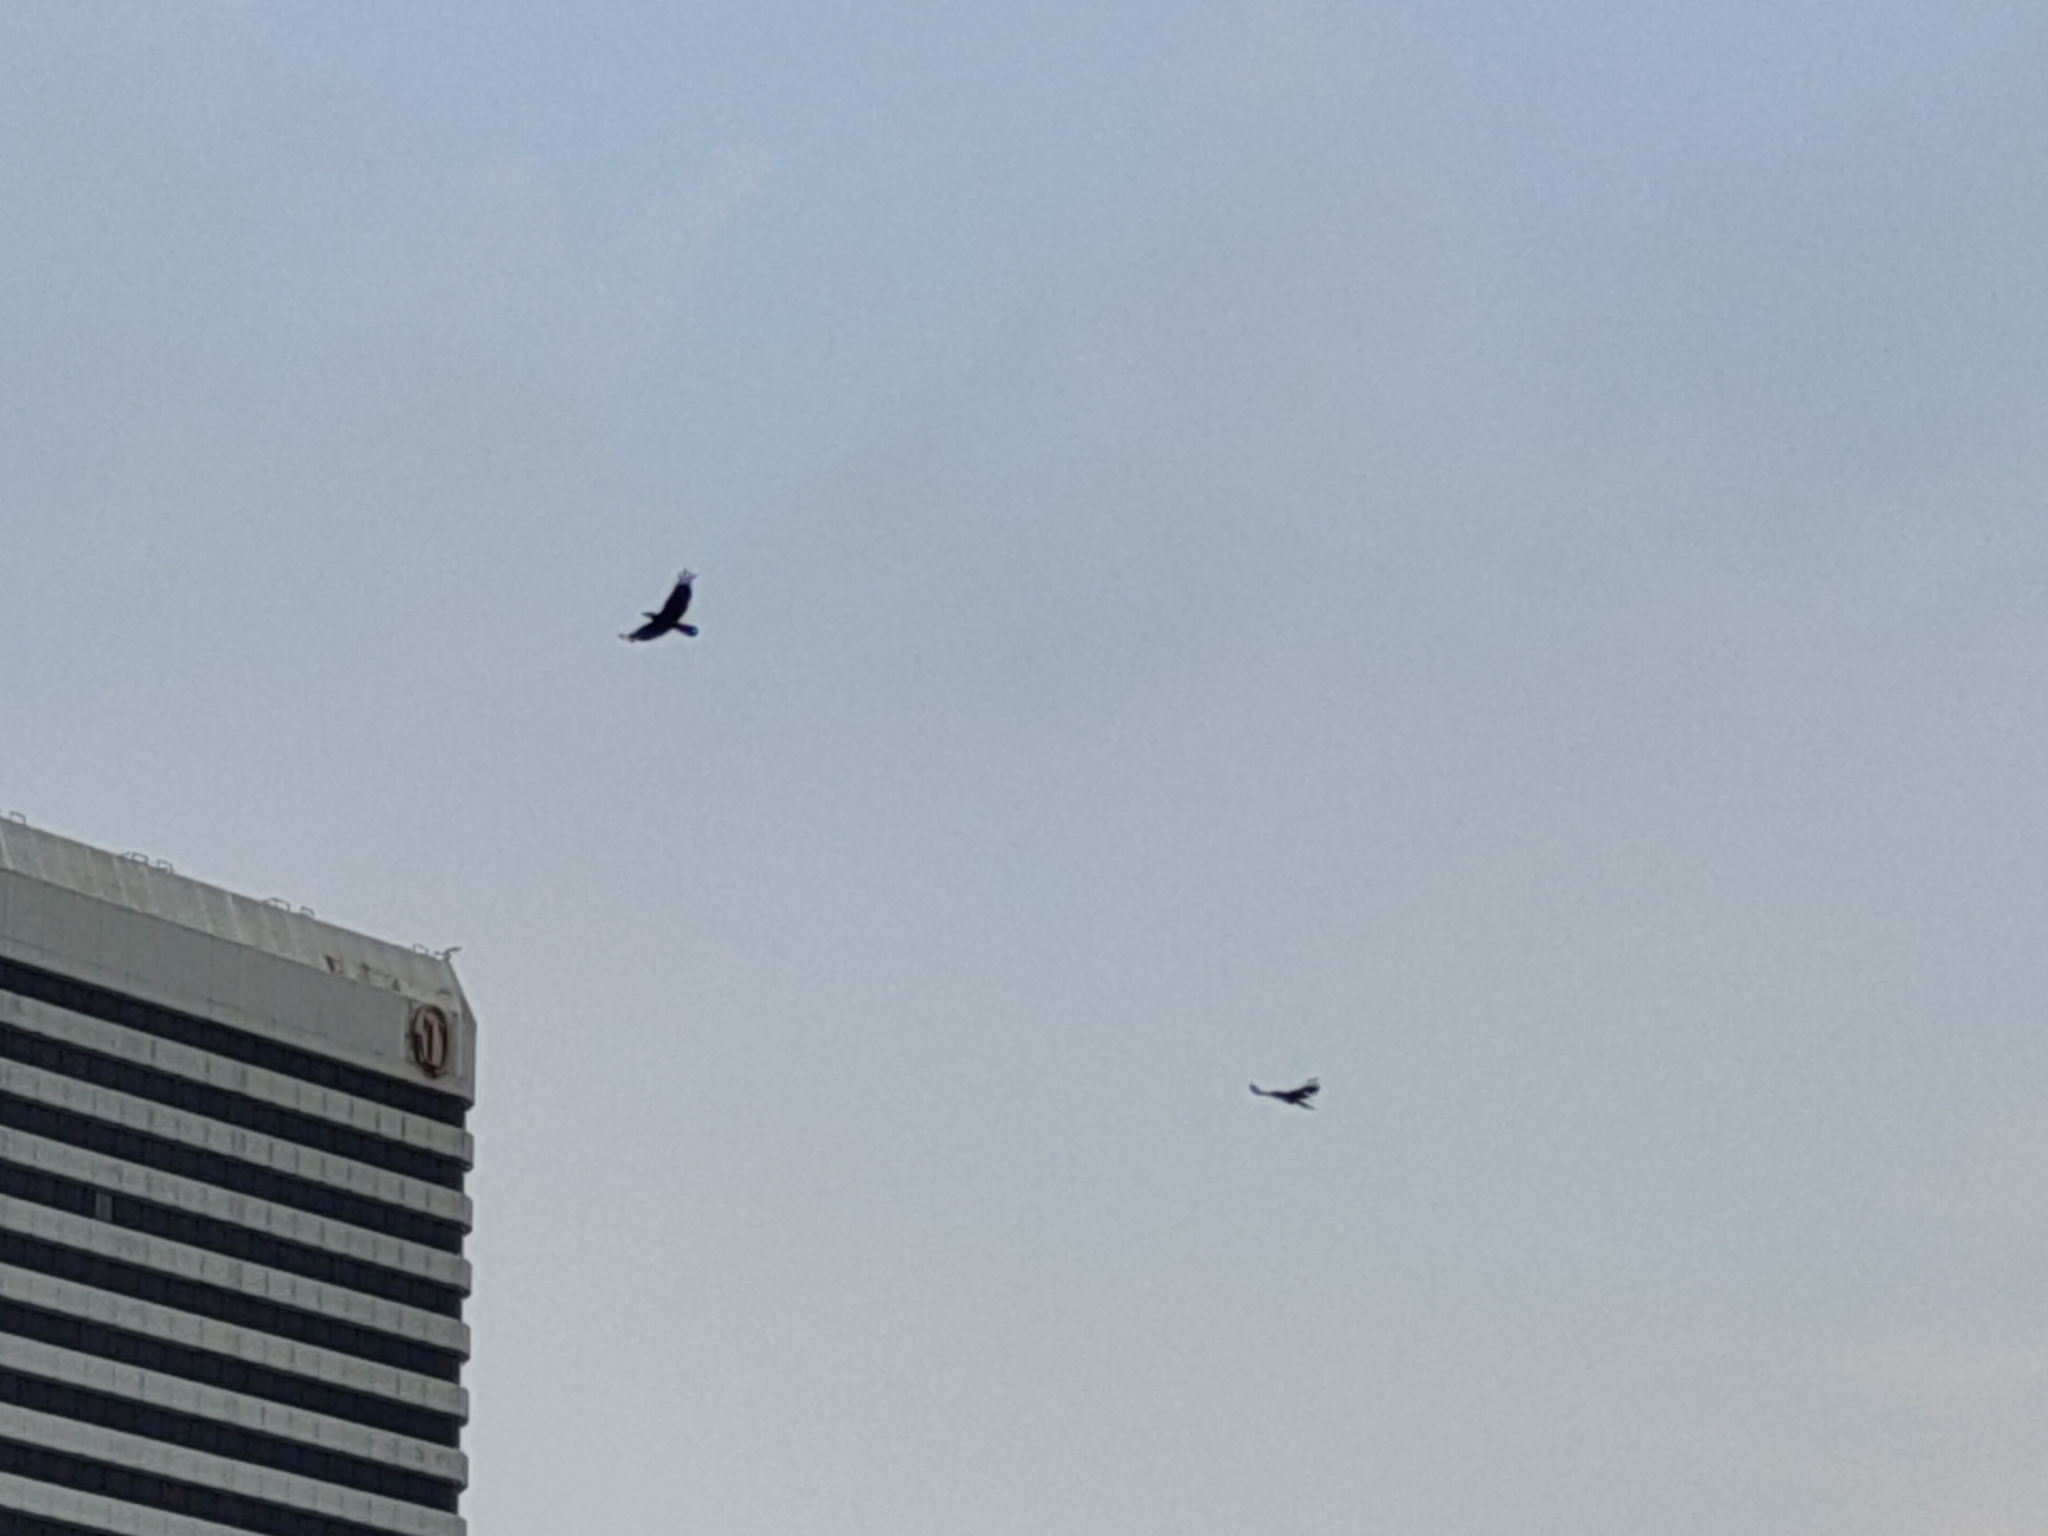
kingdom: Animalia
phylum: Chordata
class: Aves
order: Passeriformes
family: Corvidae
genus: Corvus
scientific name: Corvus macrorhynchos
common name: Large-billed crow
